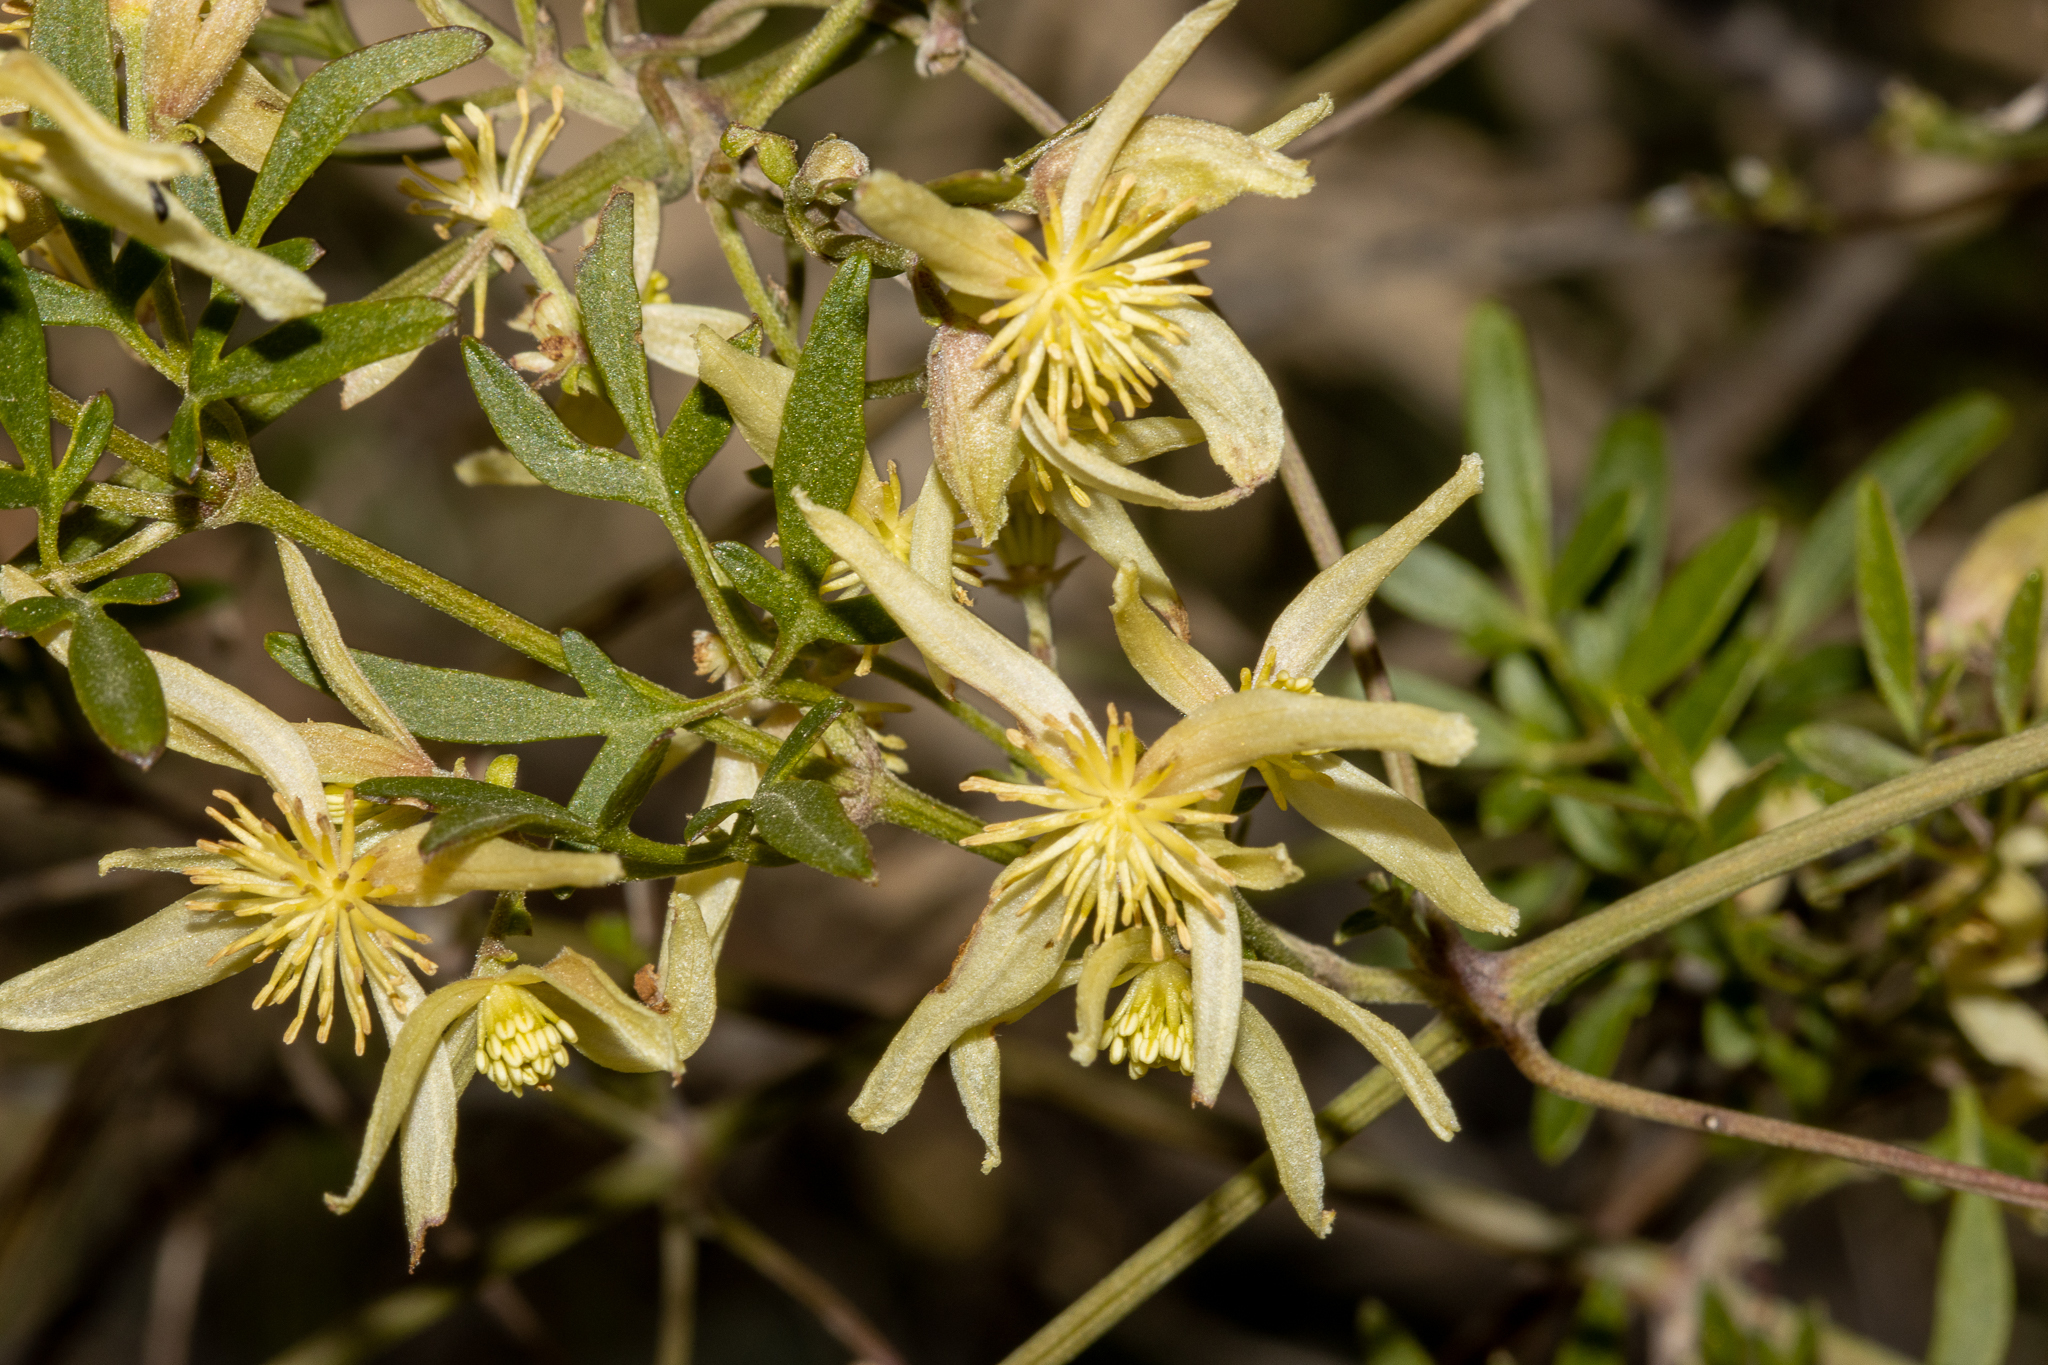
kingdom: Plantae
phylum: Tracheophyta
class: Magnoliopsida
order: Ranunculales
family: Ranunculaceae
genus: Clematis
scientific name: Clematis microphylla
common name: Headachevine
